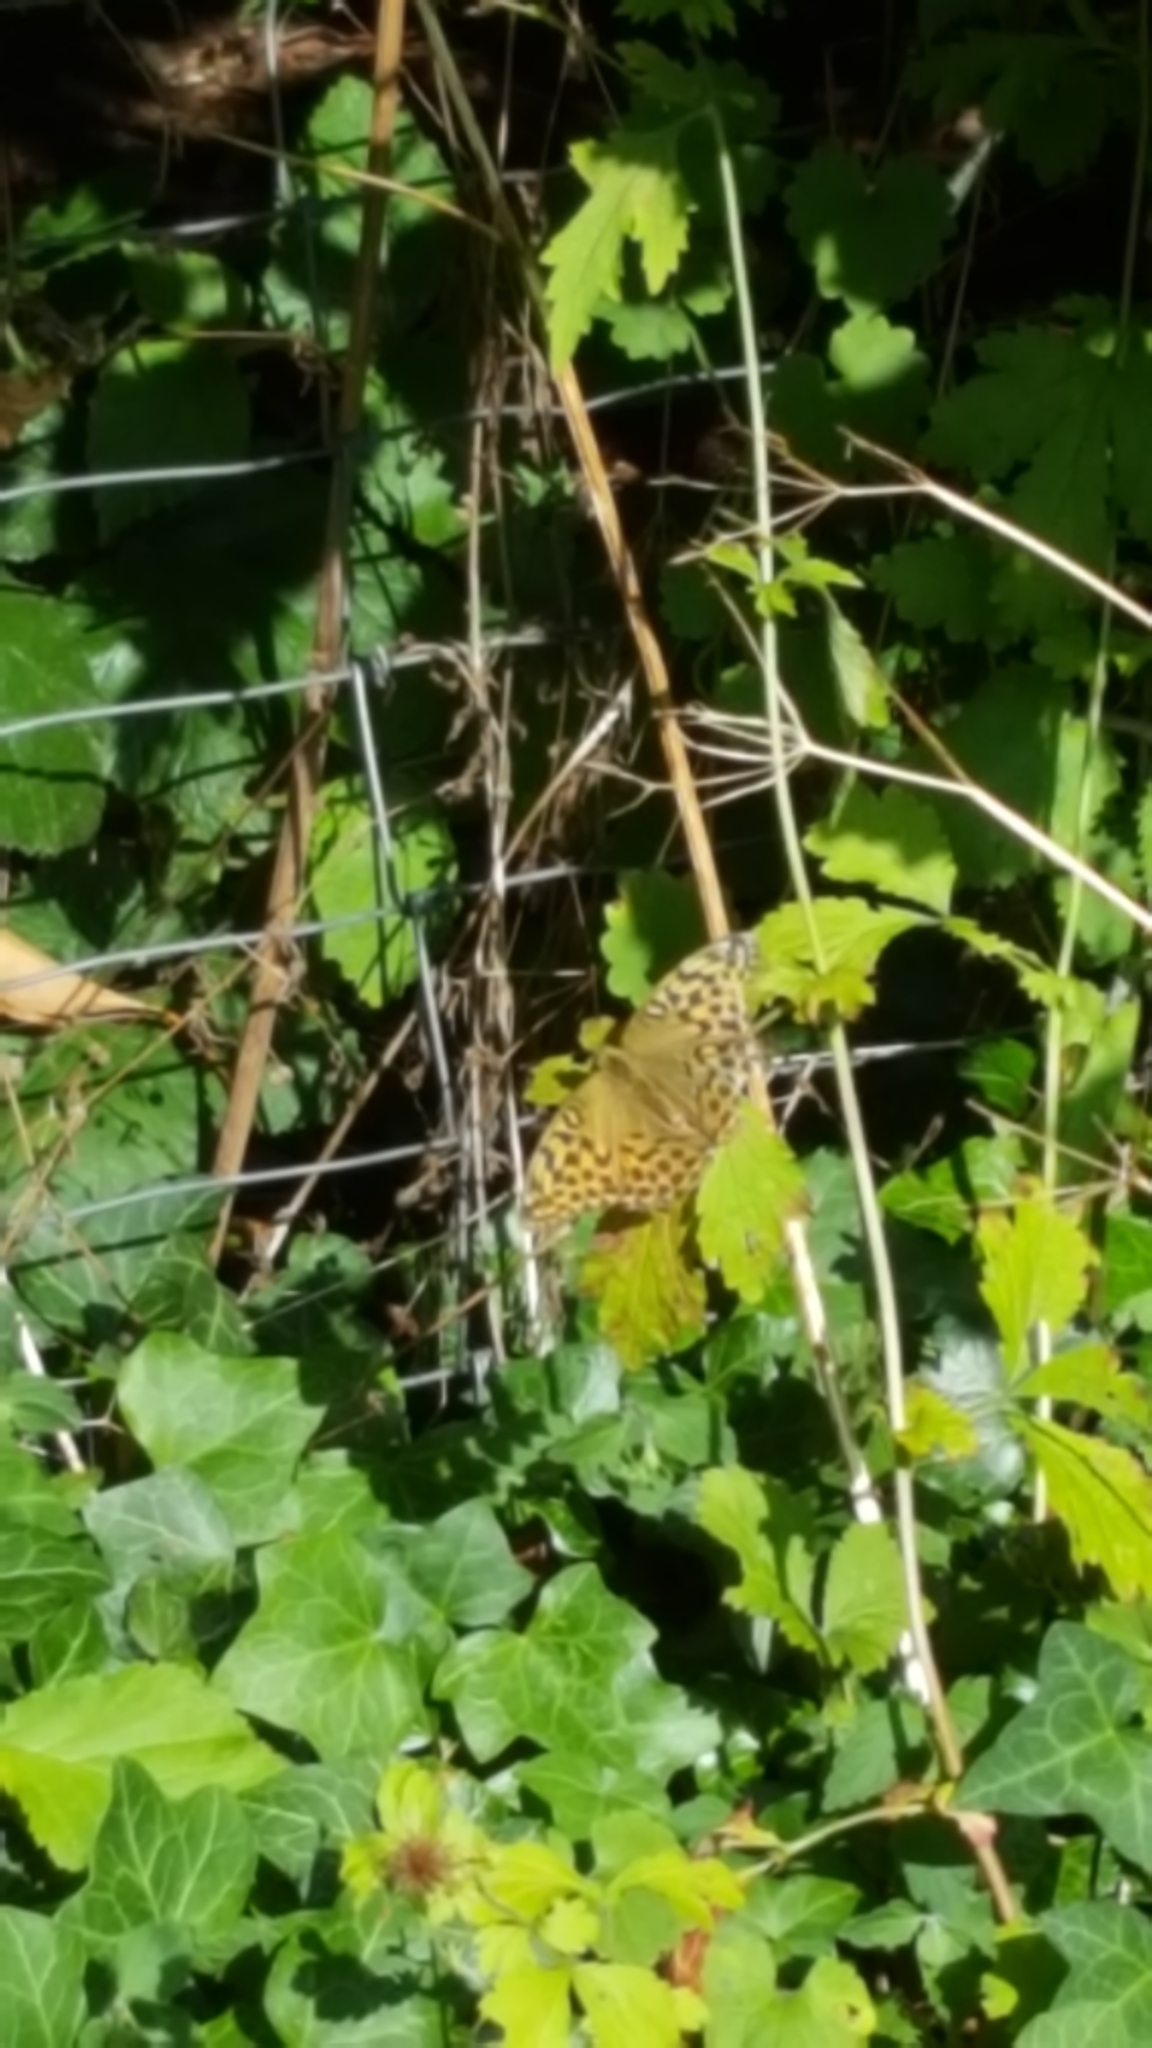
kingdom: Animalia
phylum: Arthropoda
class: Insecta
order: Lepidoptera
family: Nymphalidae
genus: Argynnis
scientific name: Argynnis paphia
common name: Silver-washed fritillary
